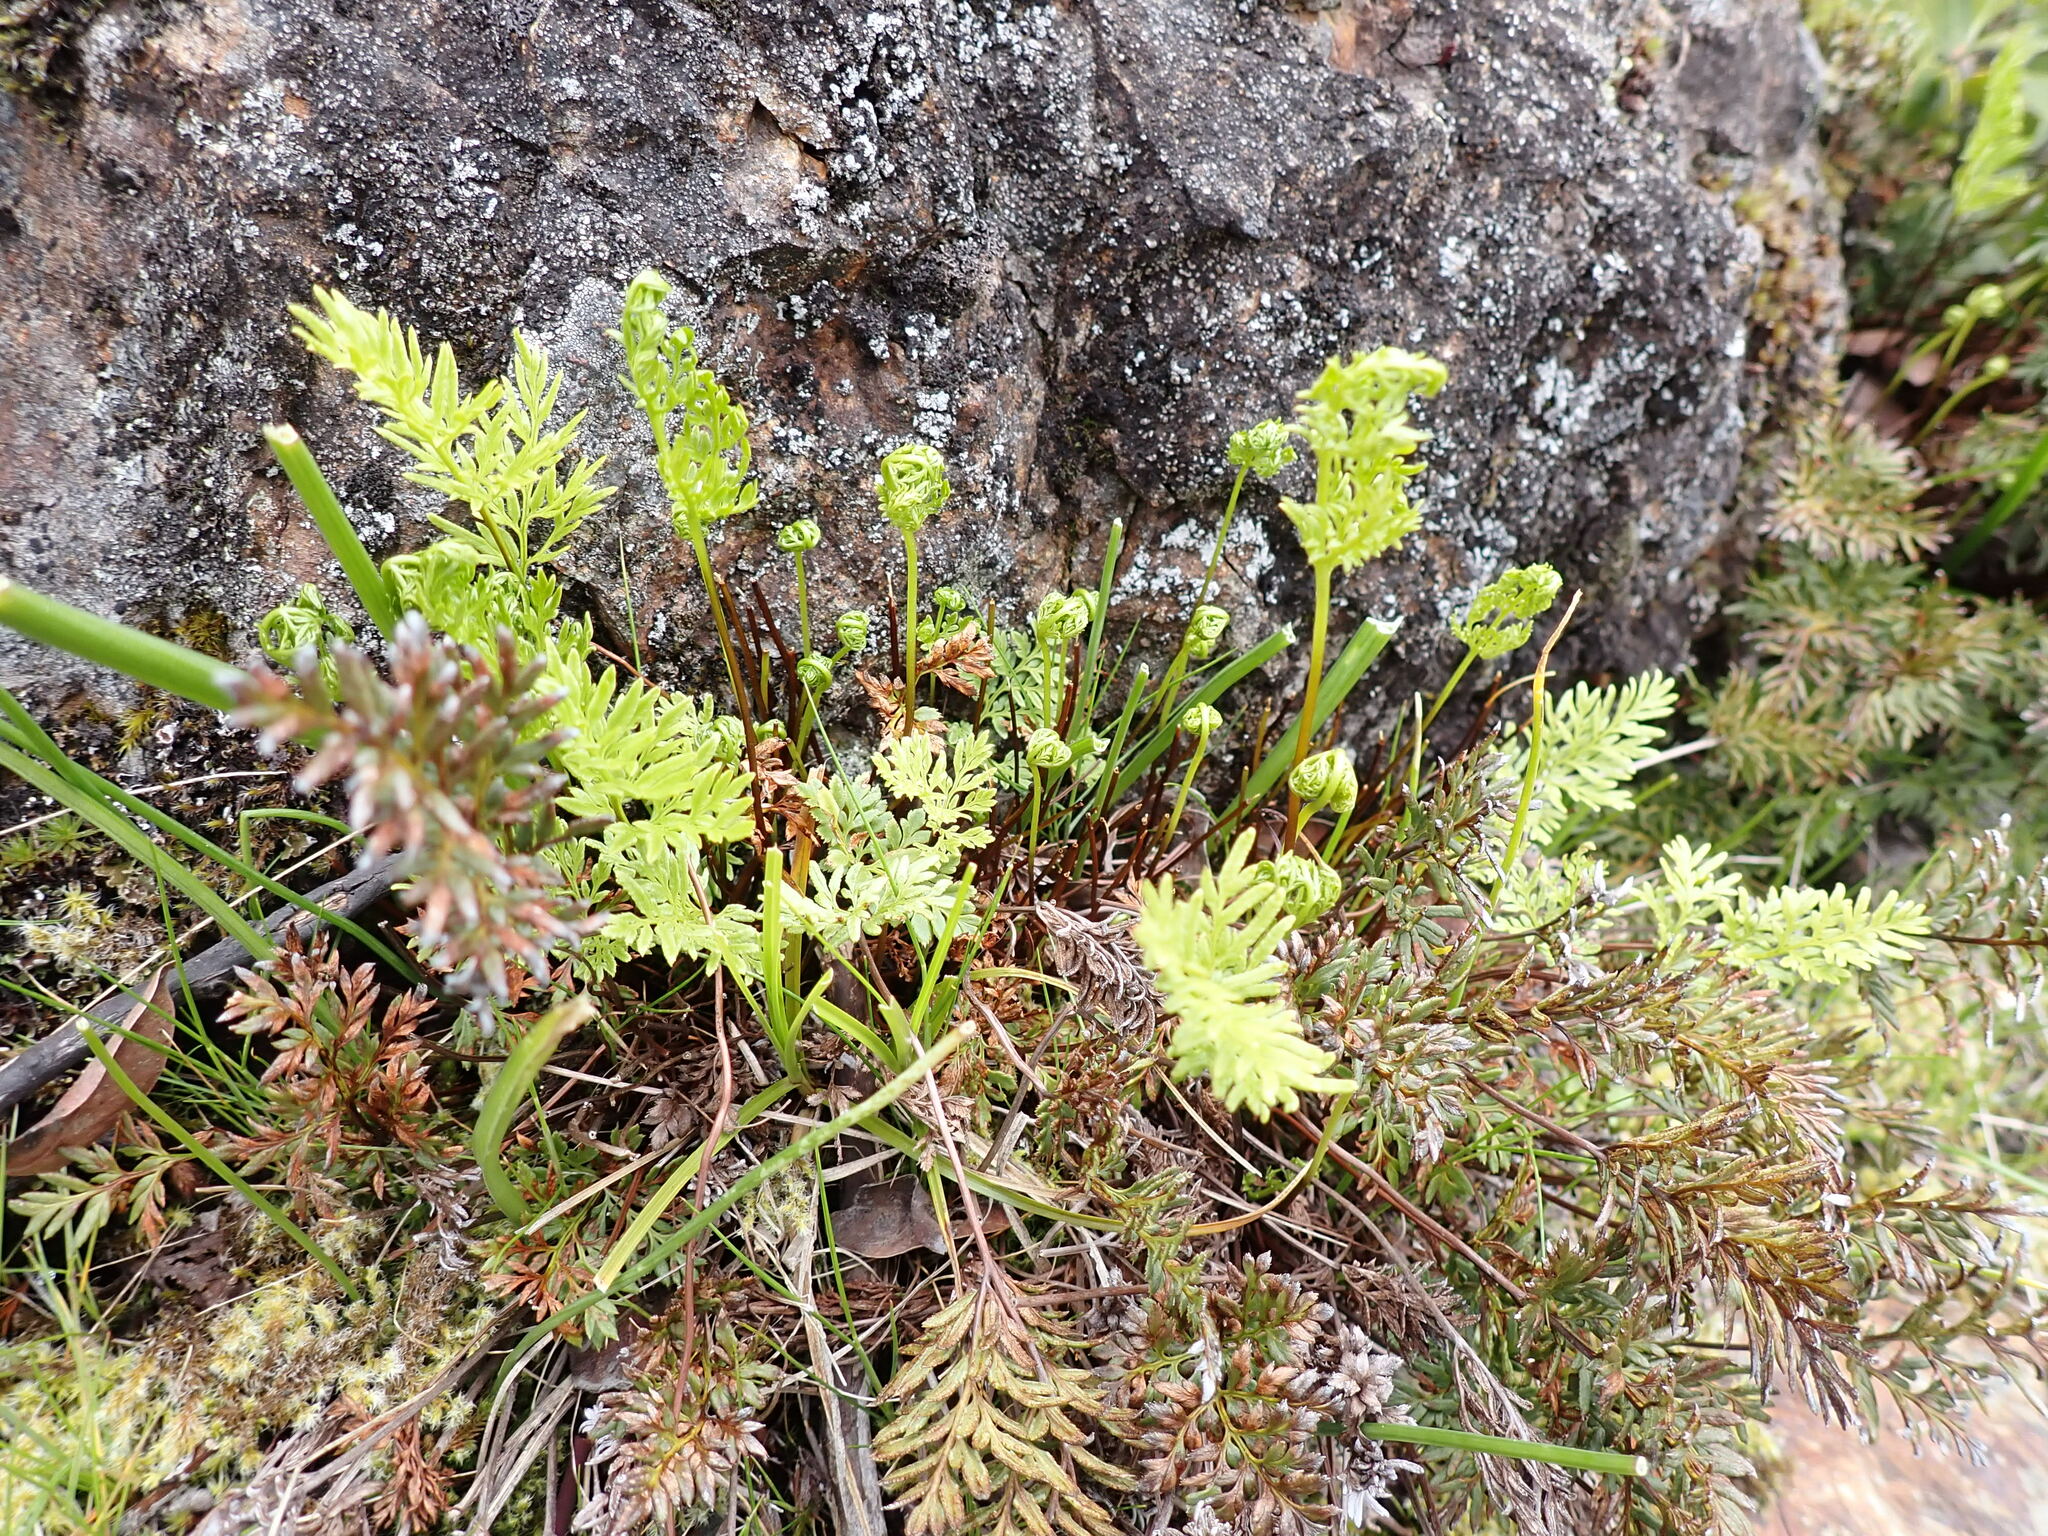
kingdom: Plantae
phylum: Tracheophyta
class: Polypodiopsida
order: Polypodiales
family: Pteridaceae
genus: Aspidotis
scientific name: Aspidotis densa
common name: Indian's dream
